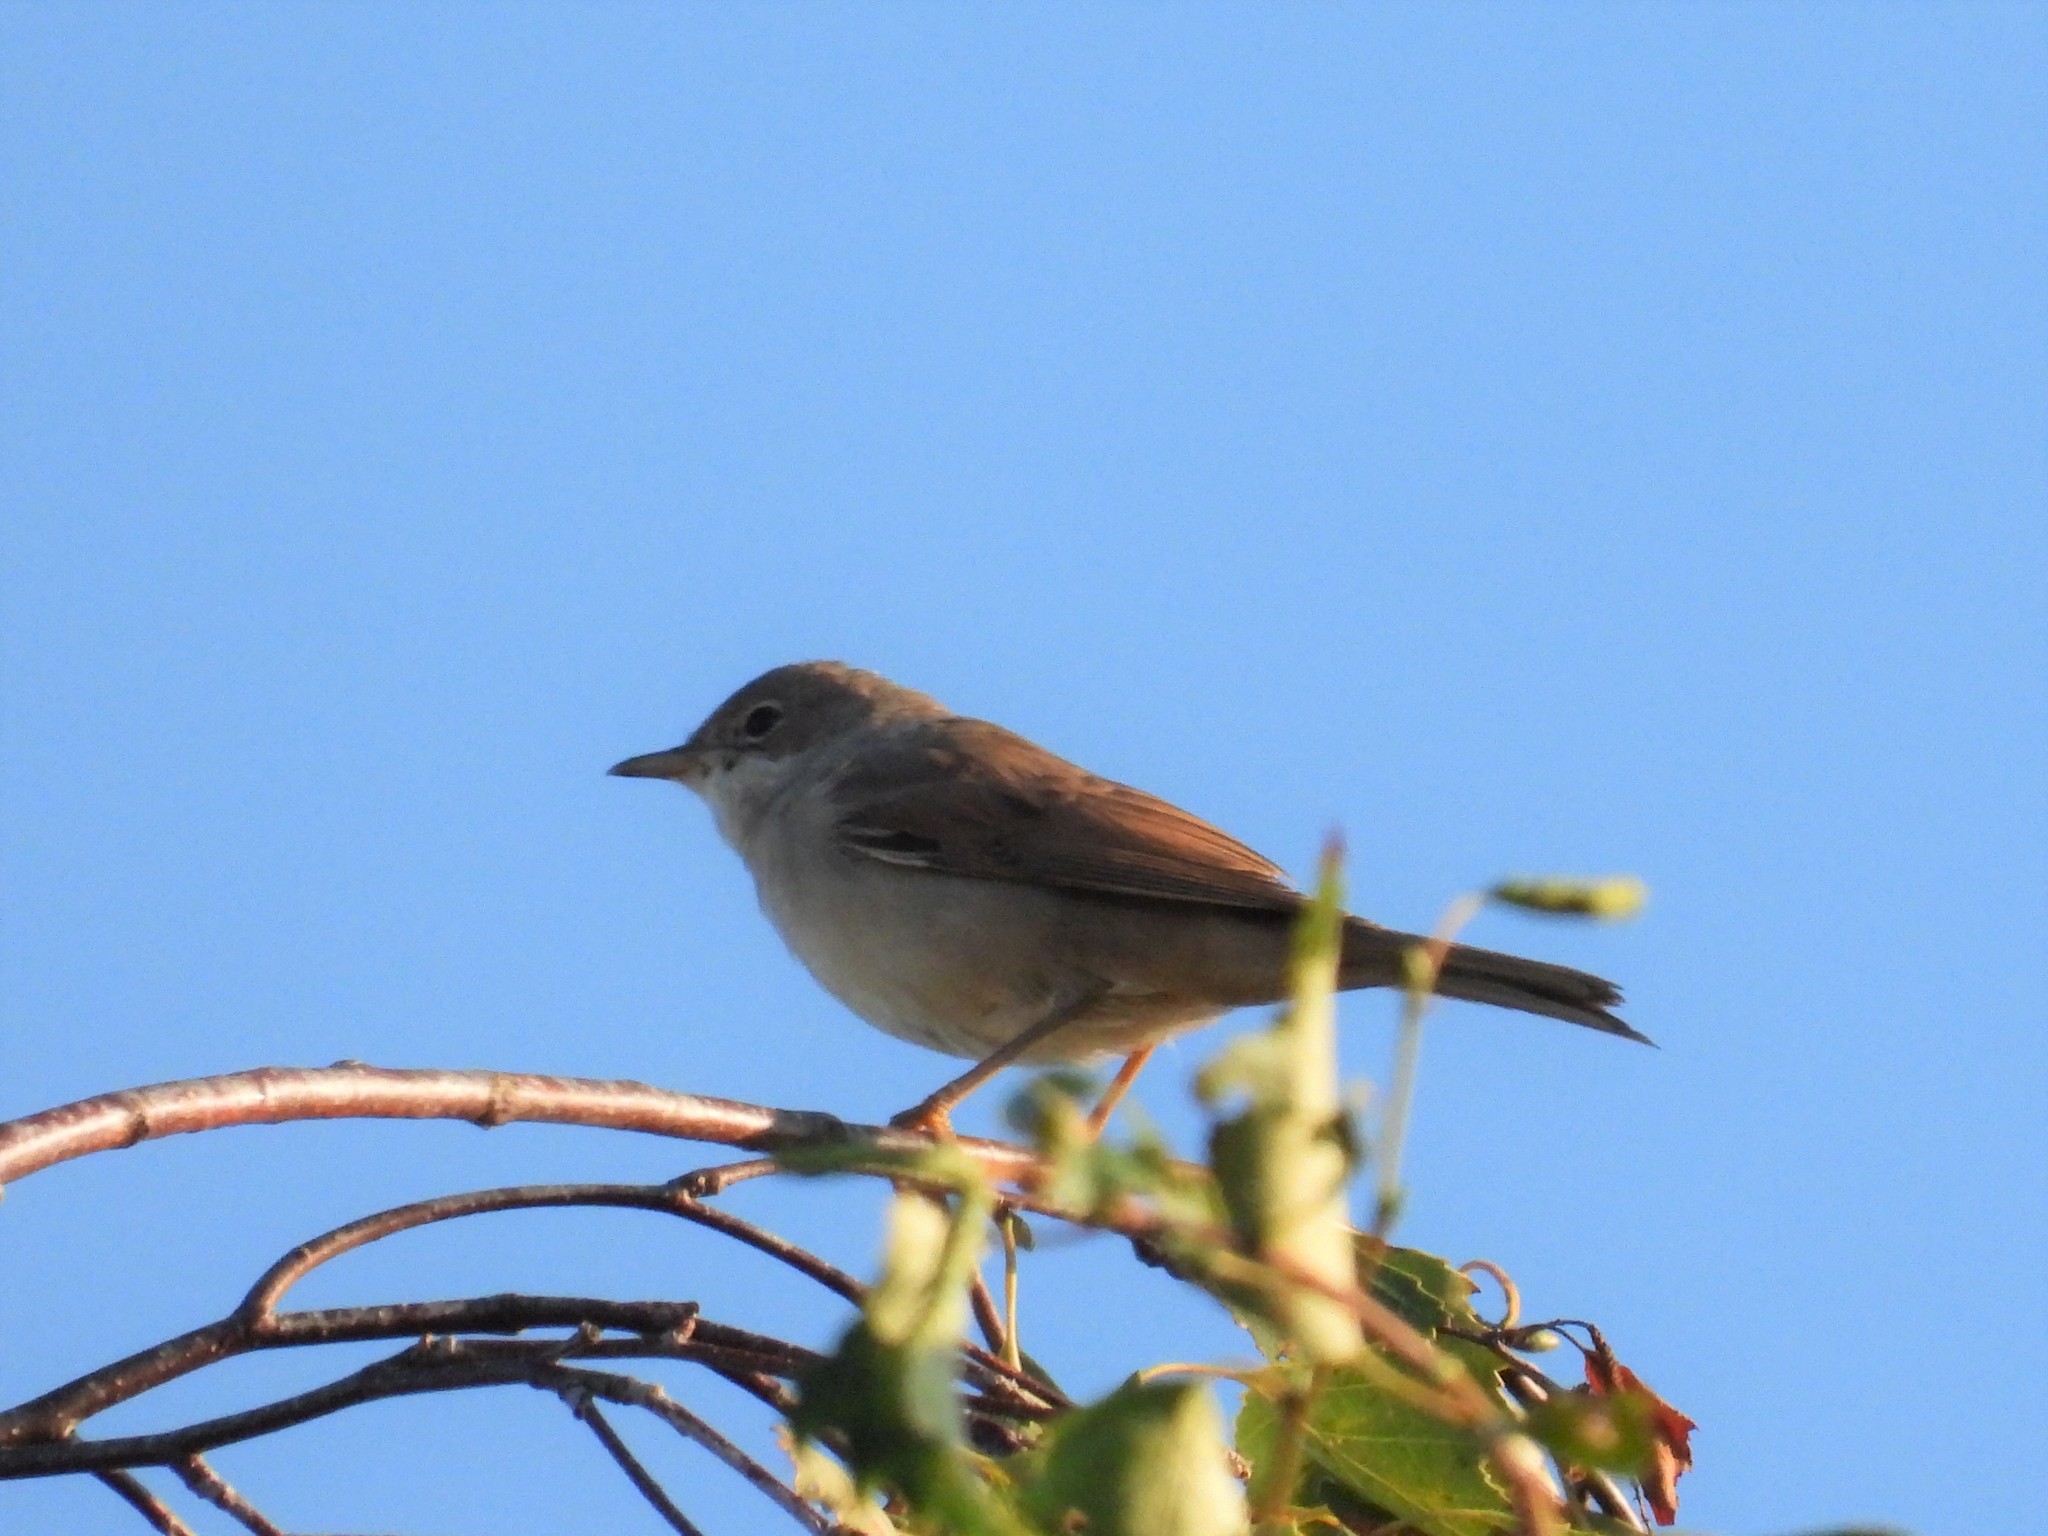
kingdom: Animalia
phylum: Chordata
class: Aves
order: Passeriformes
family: Sylviidae
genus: Sylvia
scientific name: Sylvia communis
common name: Common whitethroat
